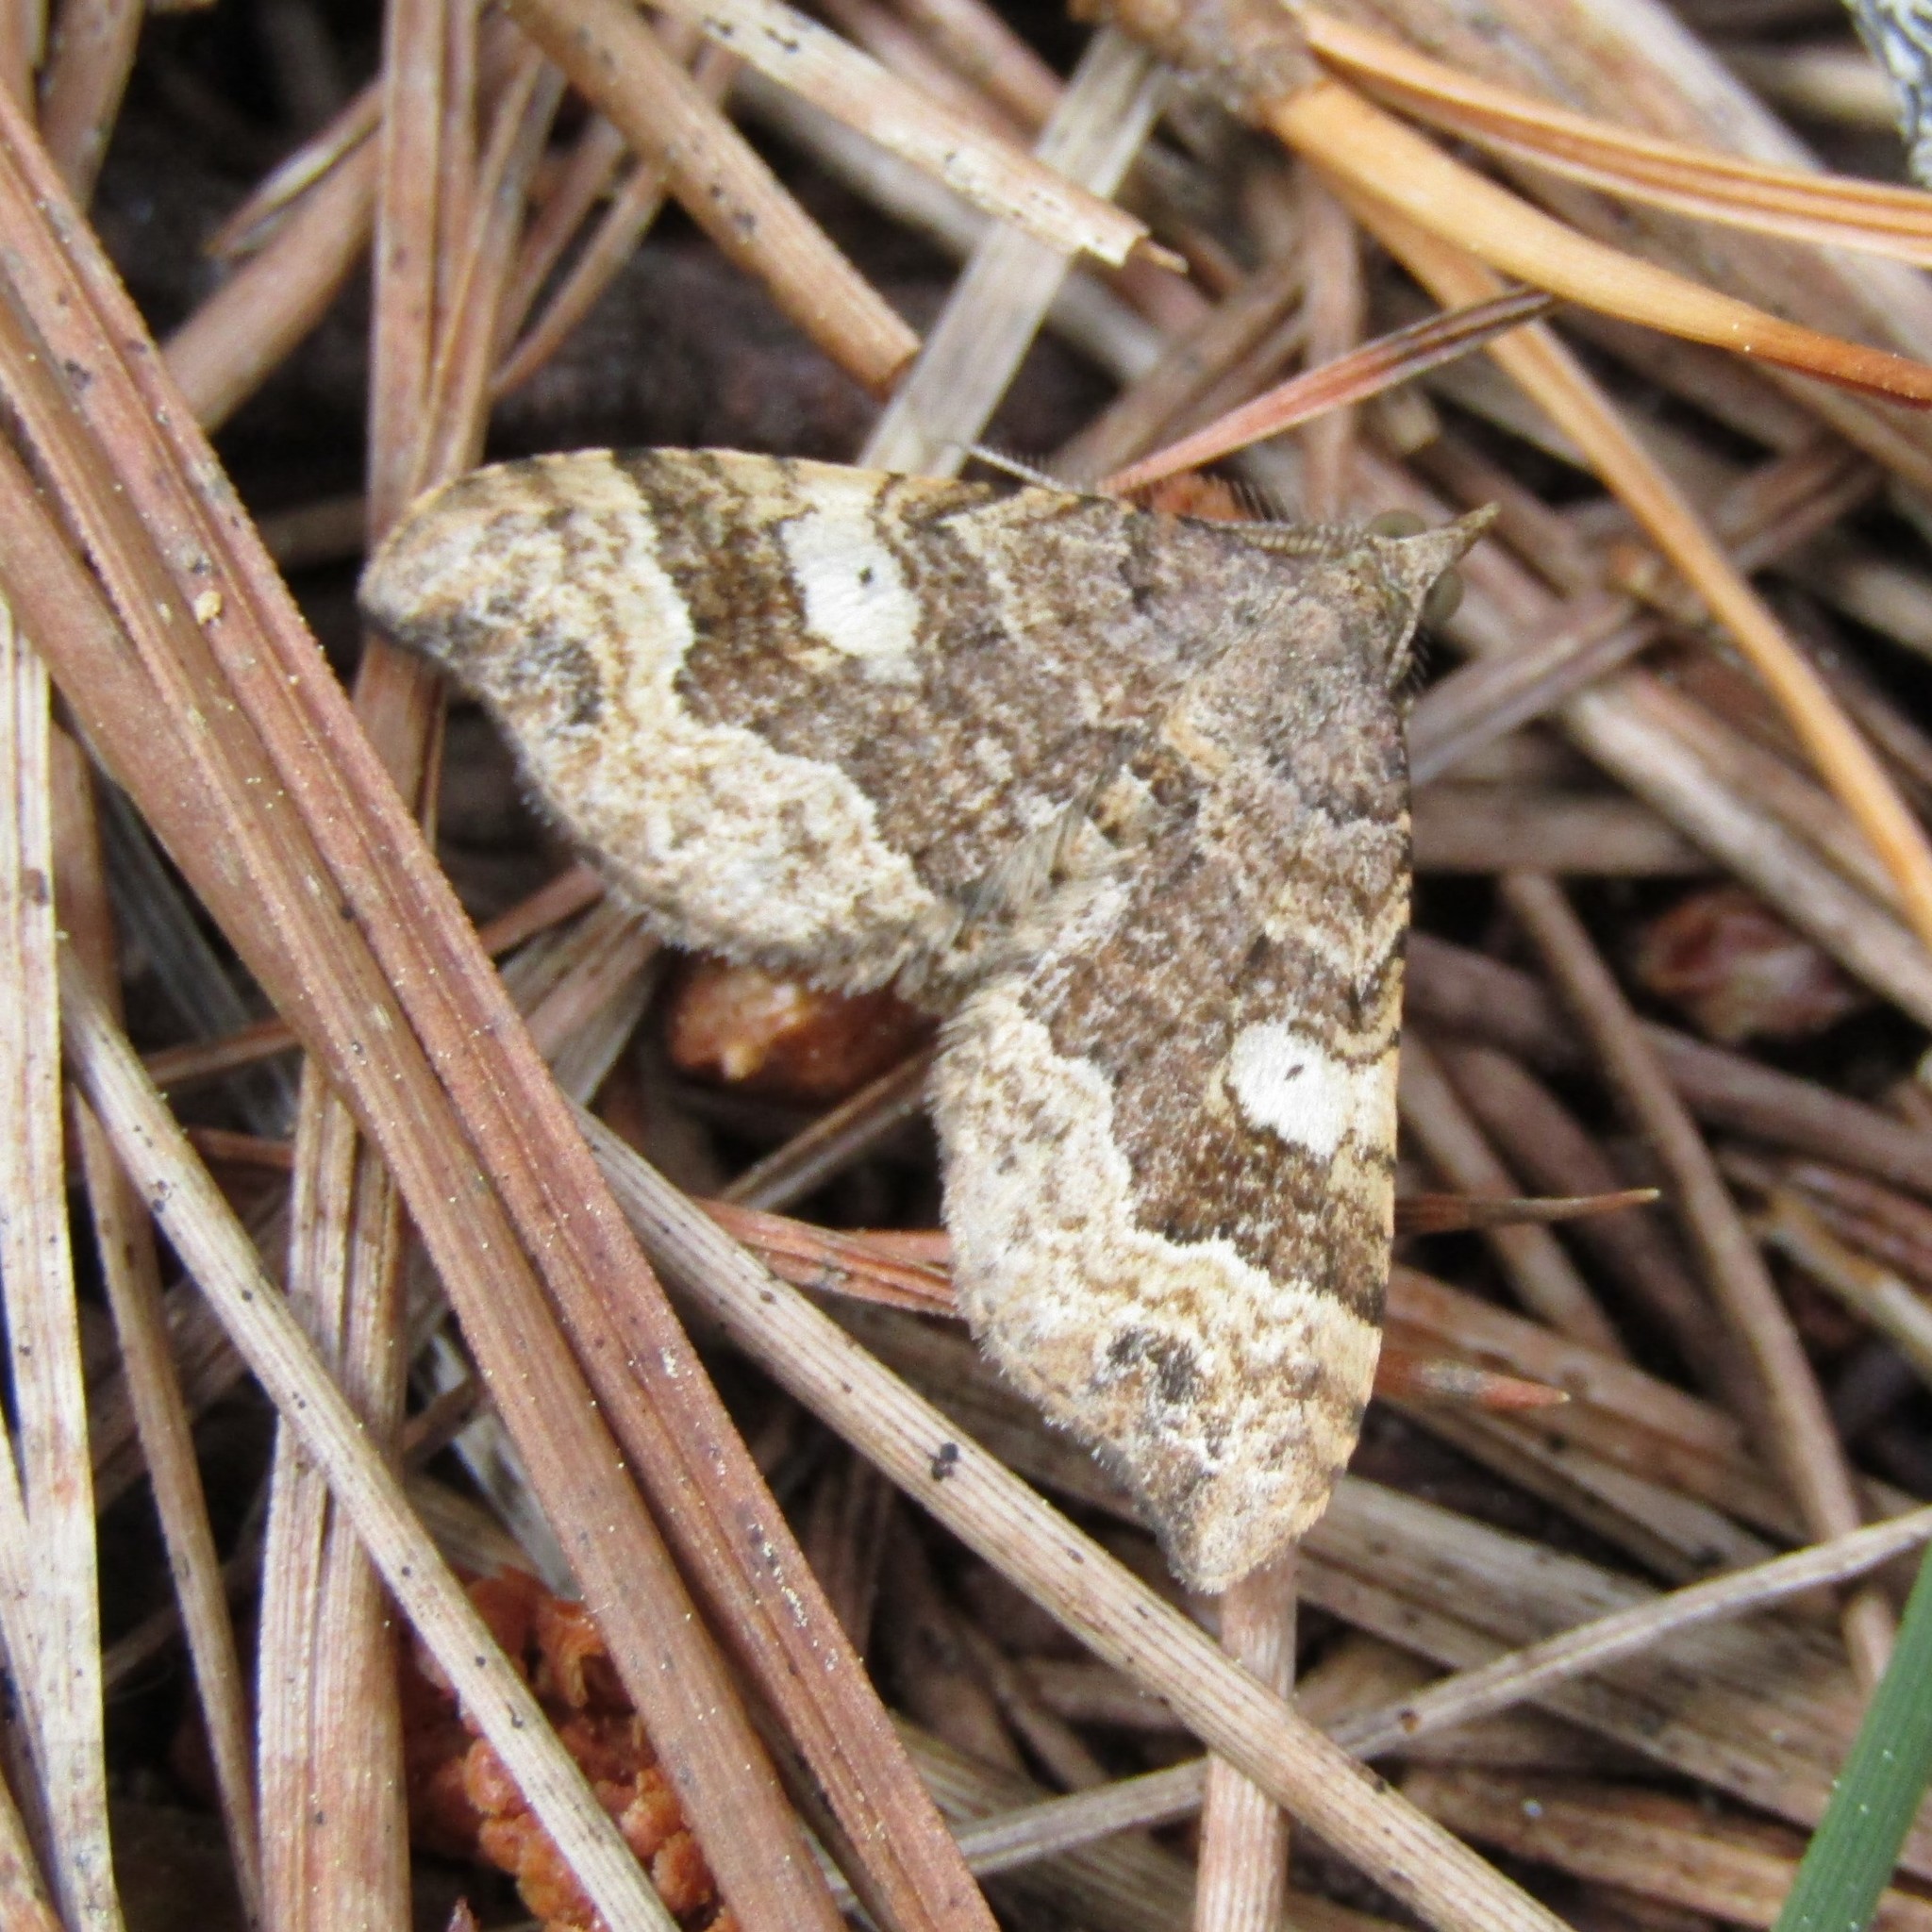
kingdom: Animalia
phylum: Arthropoda
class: Insecta
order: Lepidoptera
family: Geometridae
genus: Homodotis
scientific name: Homodotis megaspilata
